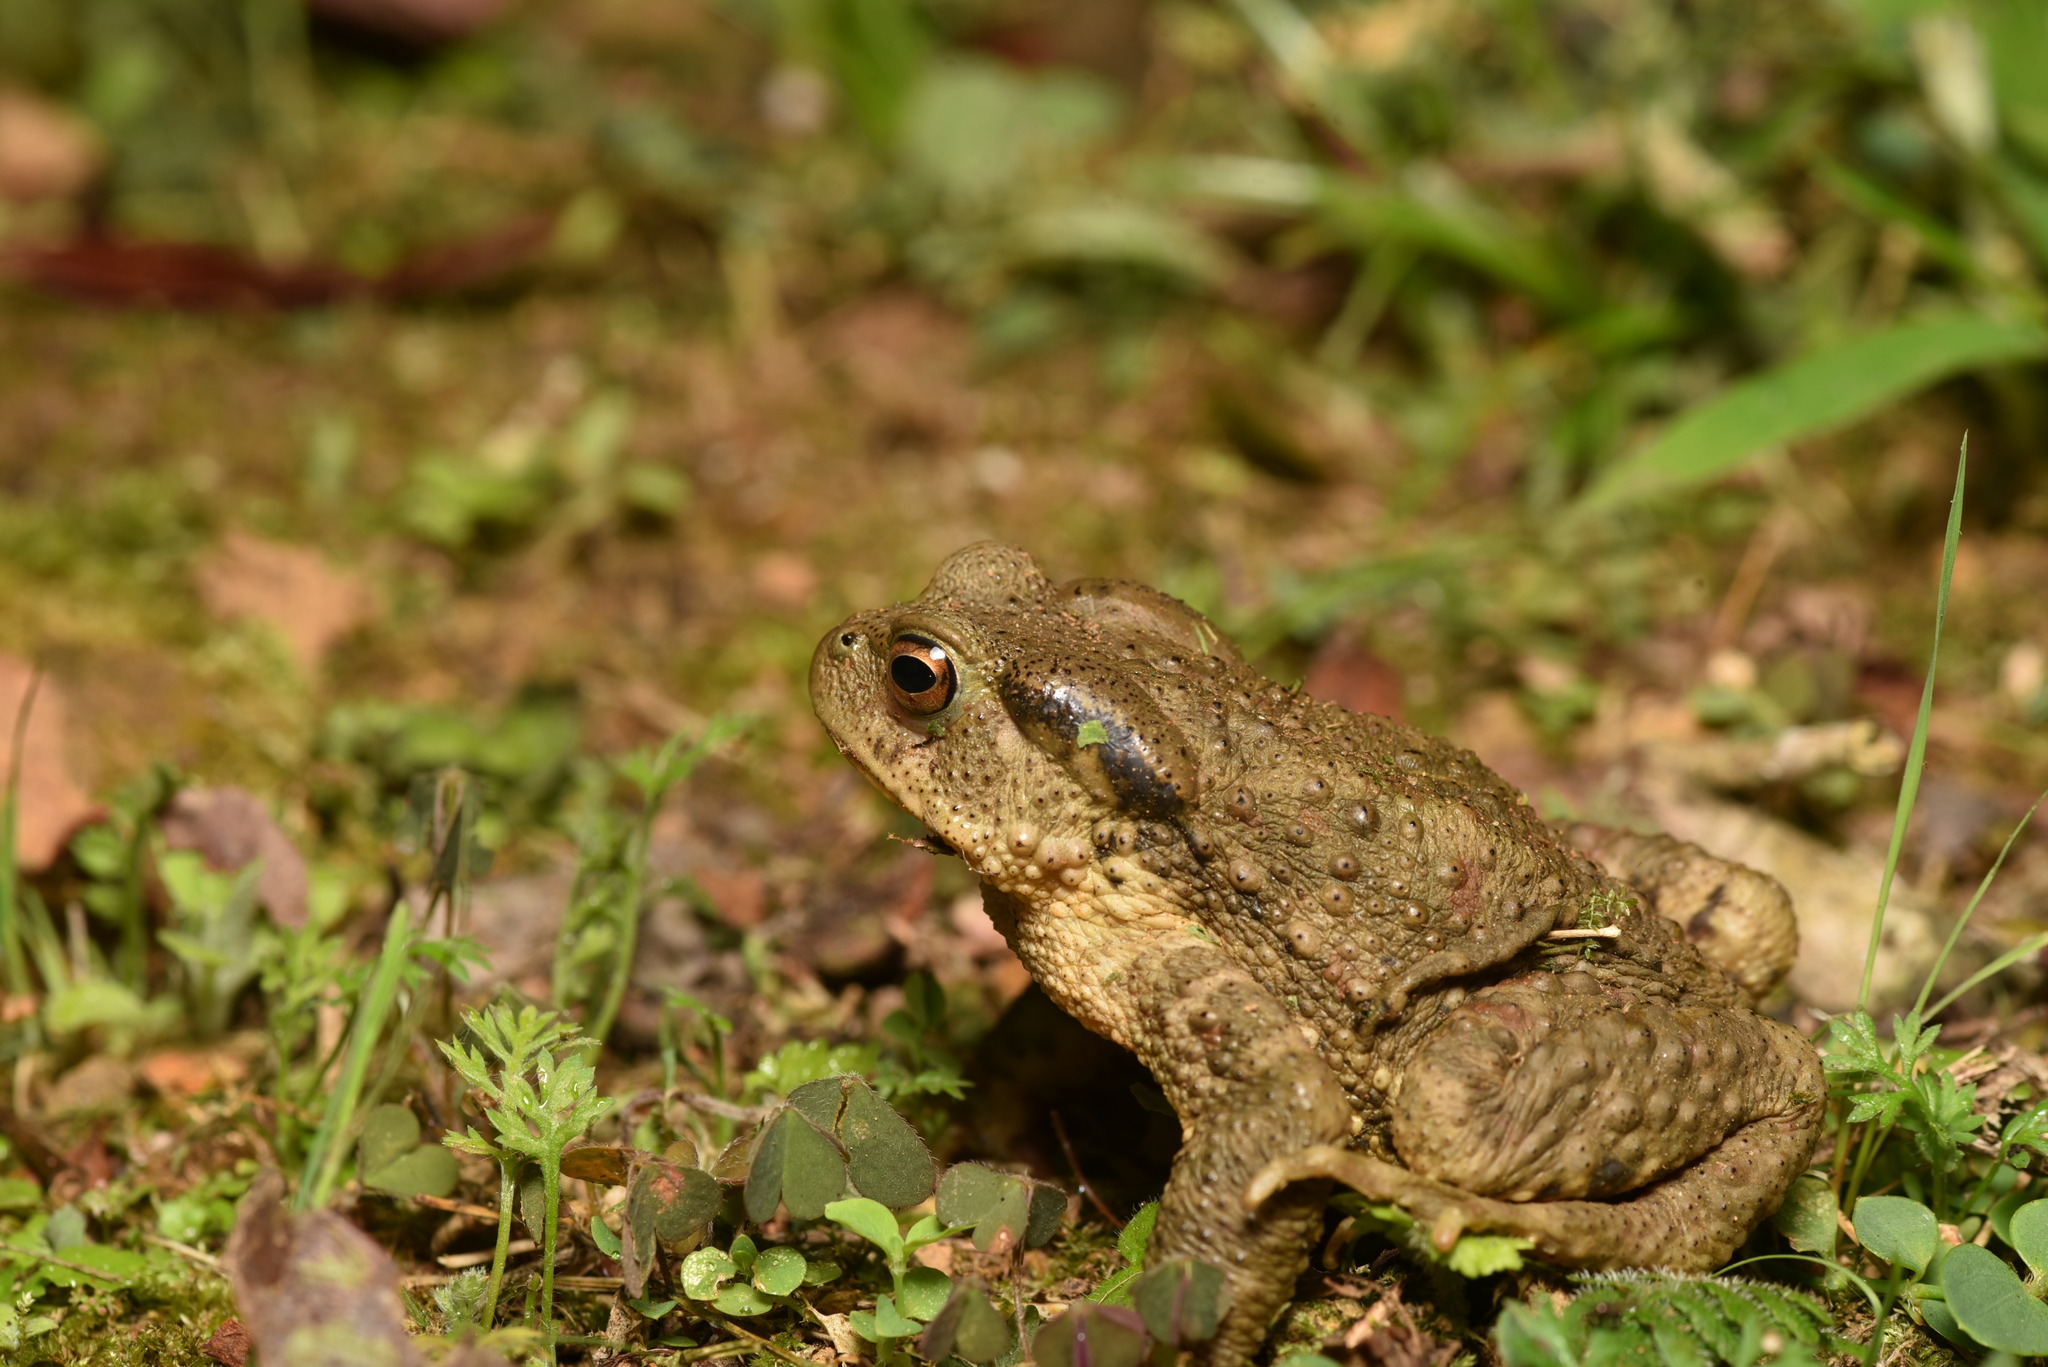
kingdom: Animalia
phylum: Chordata
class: Amphibia
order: Anura
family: Bufonidae
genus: Bufo
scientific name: Bufo bankorensis
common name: Bankor toad
